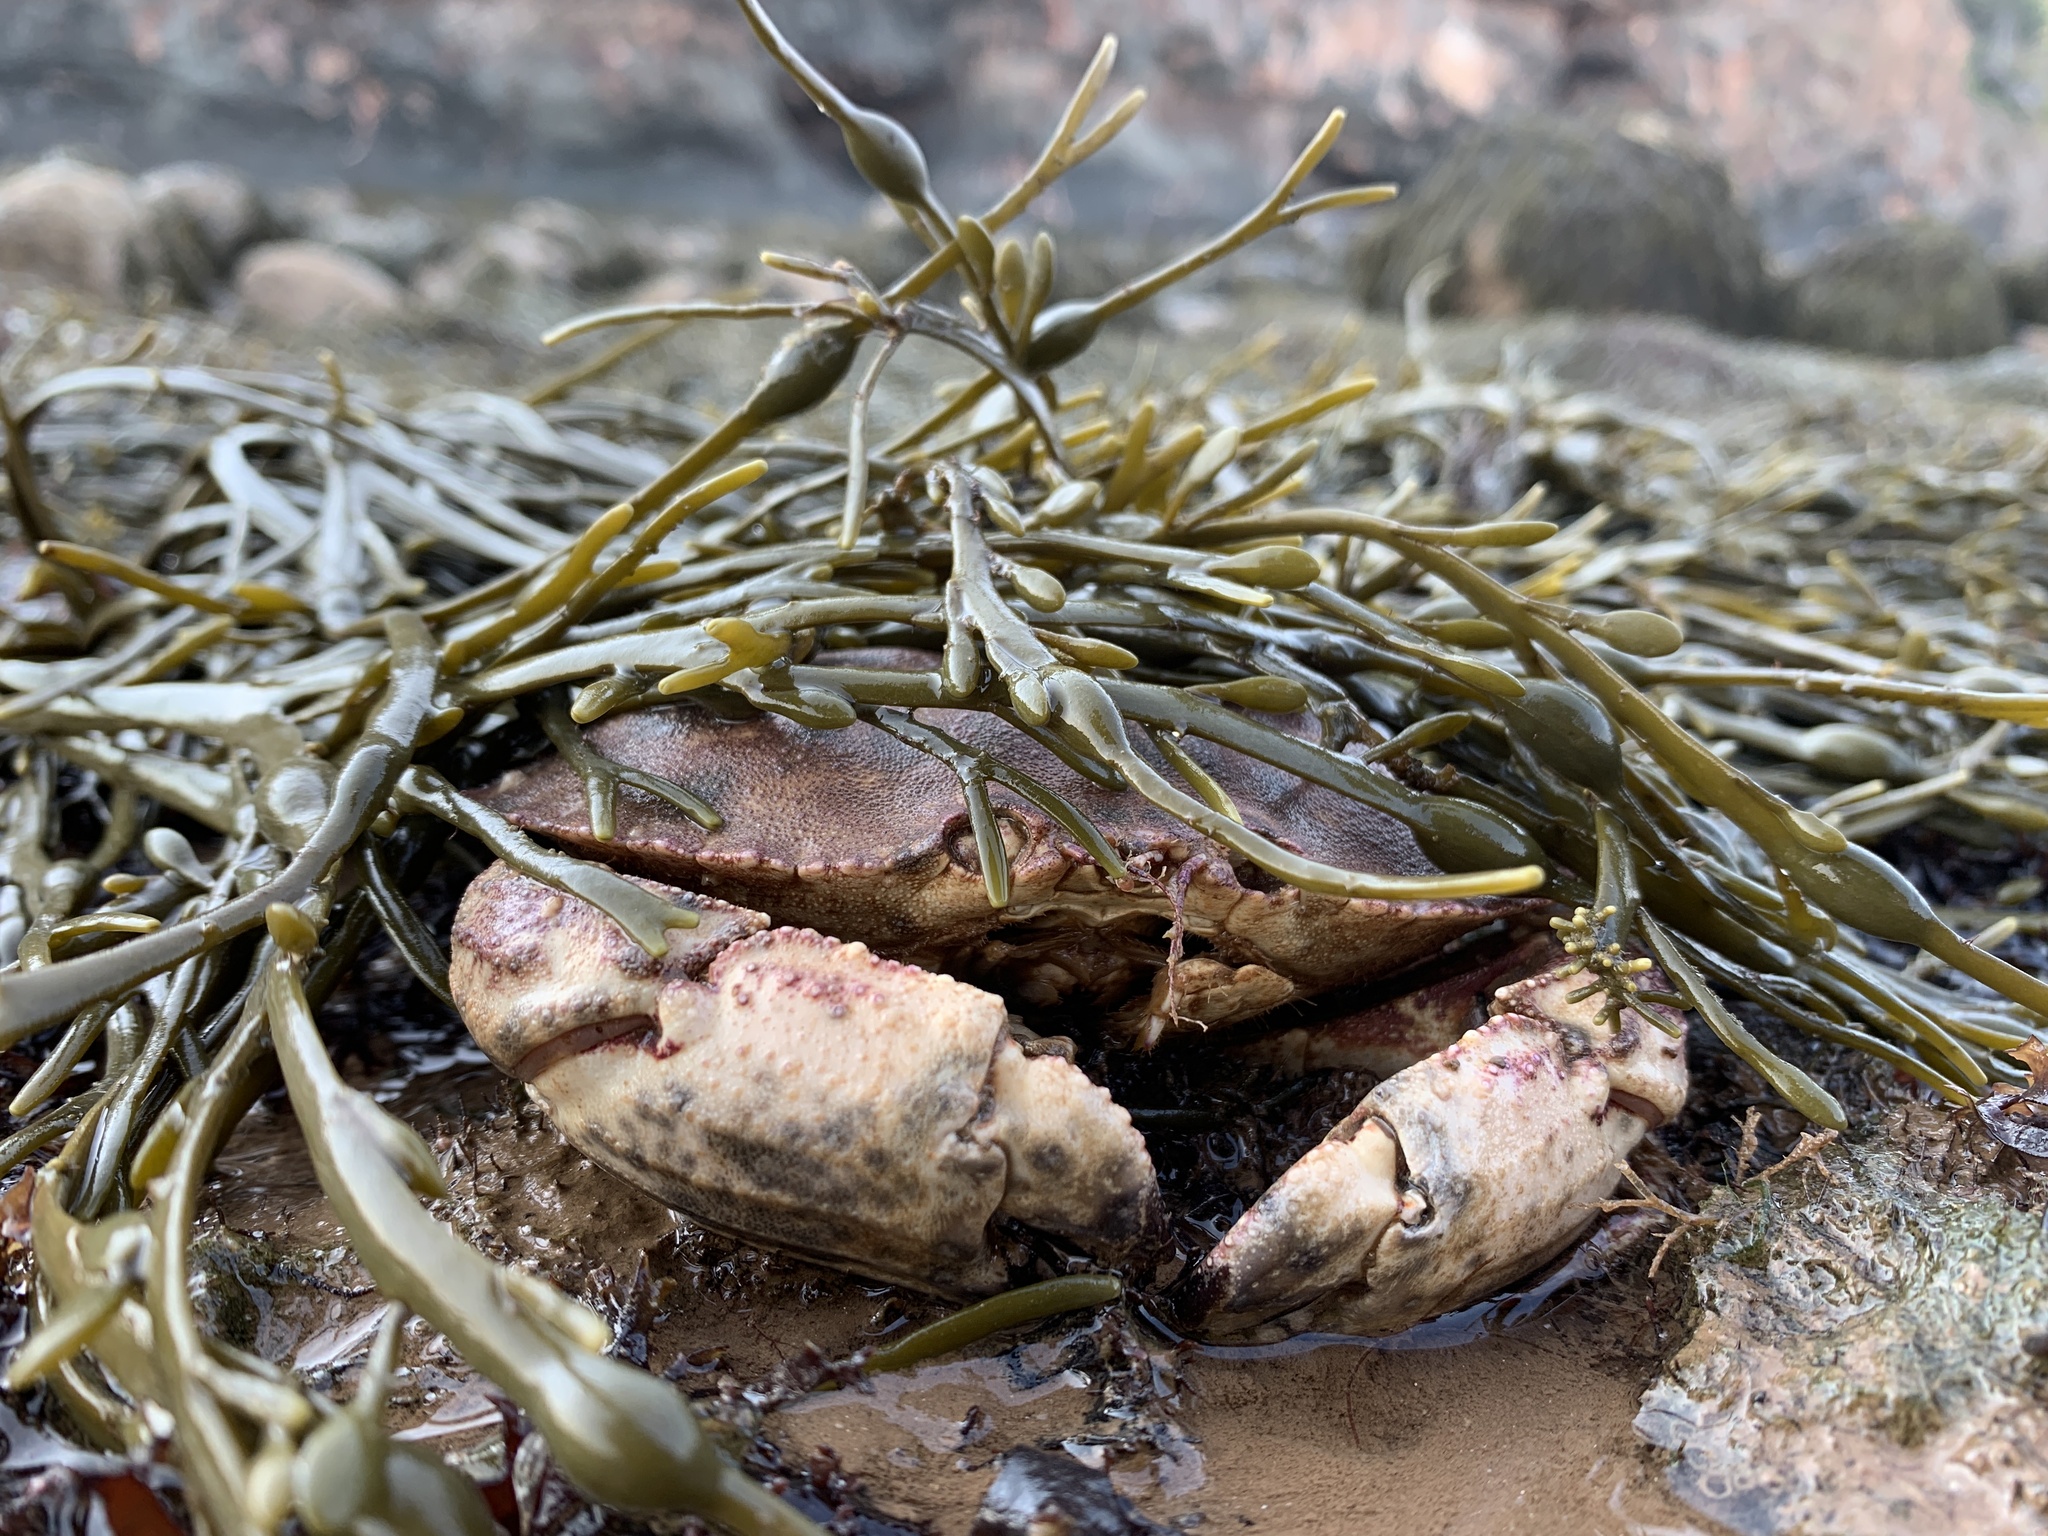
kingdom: Animalia
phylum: Arthropoda
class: Malacostraca
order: Decapoda
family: Cancridae
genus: Cancer
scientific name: Cancer borealis
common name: Jonah crab
